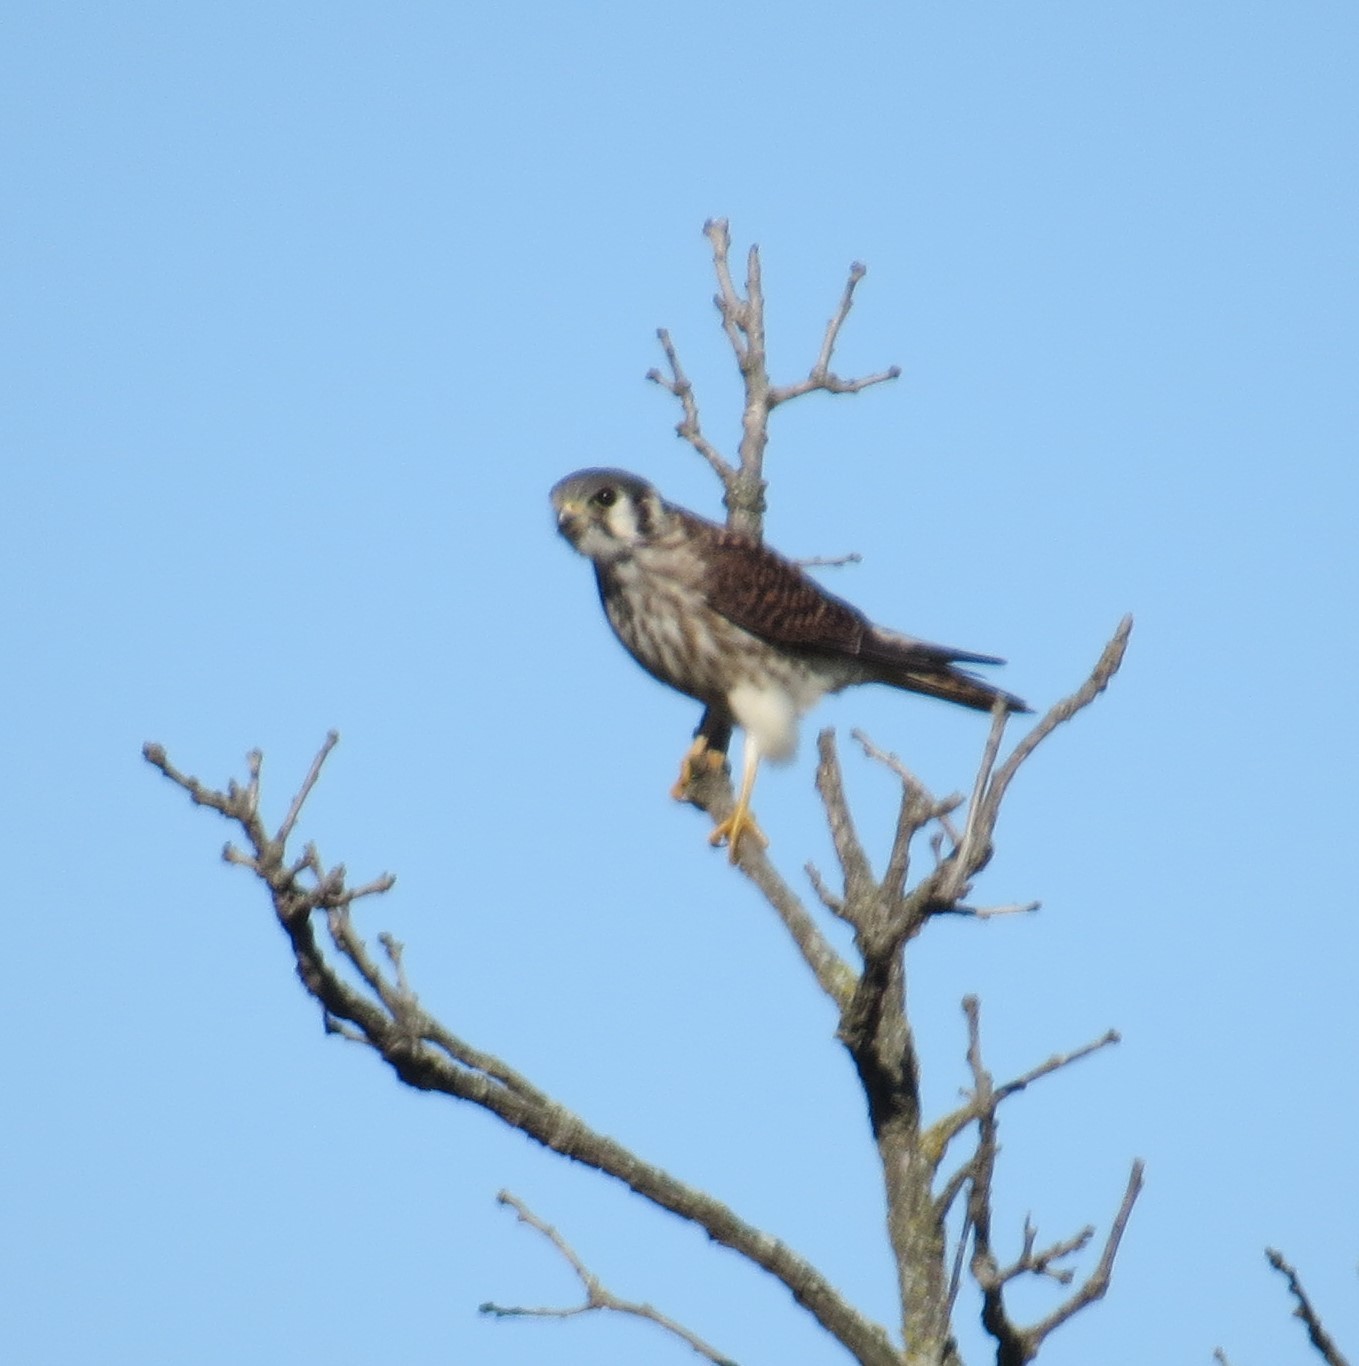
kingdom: Animalia
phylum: Chordata
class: Aves
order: Falconiformes
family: Falconidae
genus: Falco
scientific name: Falco sparverius
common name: American kestrel
